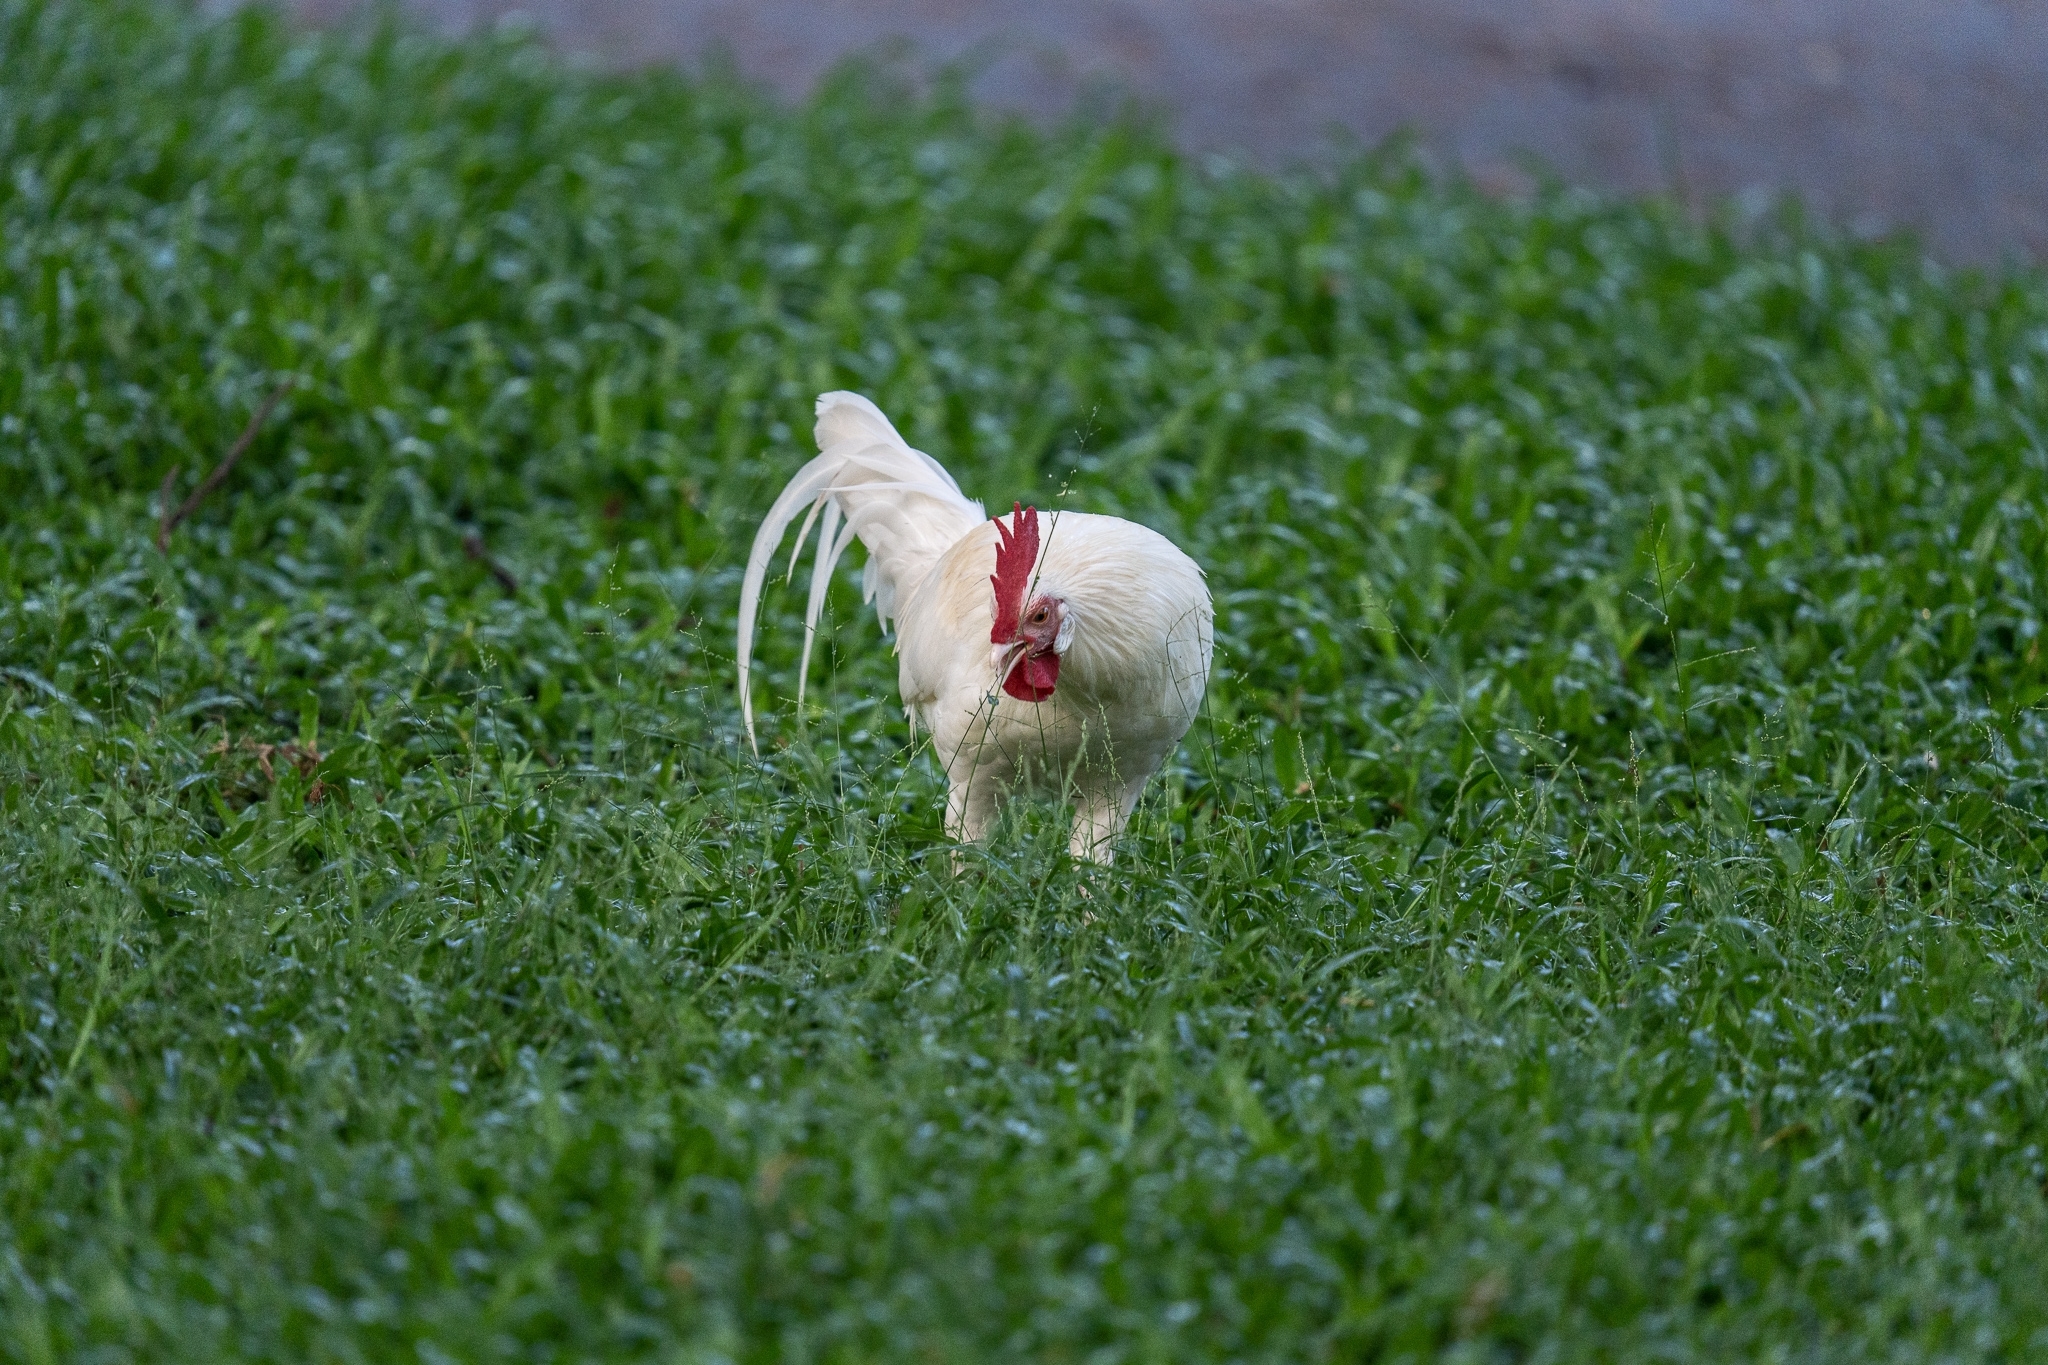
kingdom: Animalia
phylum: Chordata
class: Aves
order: Galliformes
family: Phasianidae
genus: Gallus
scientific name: Gallus gallus
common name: Red junglefowl
